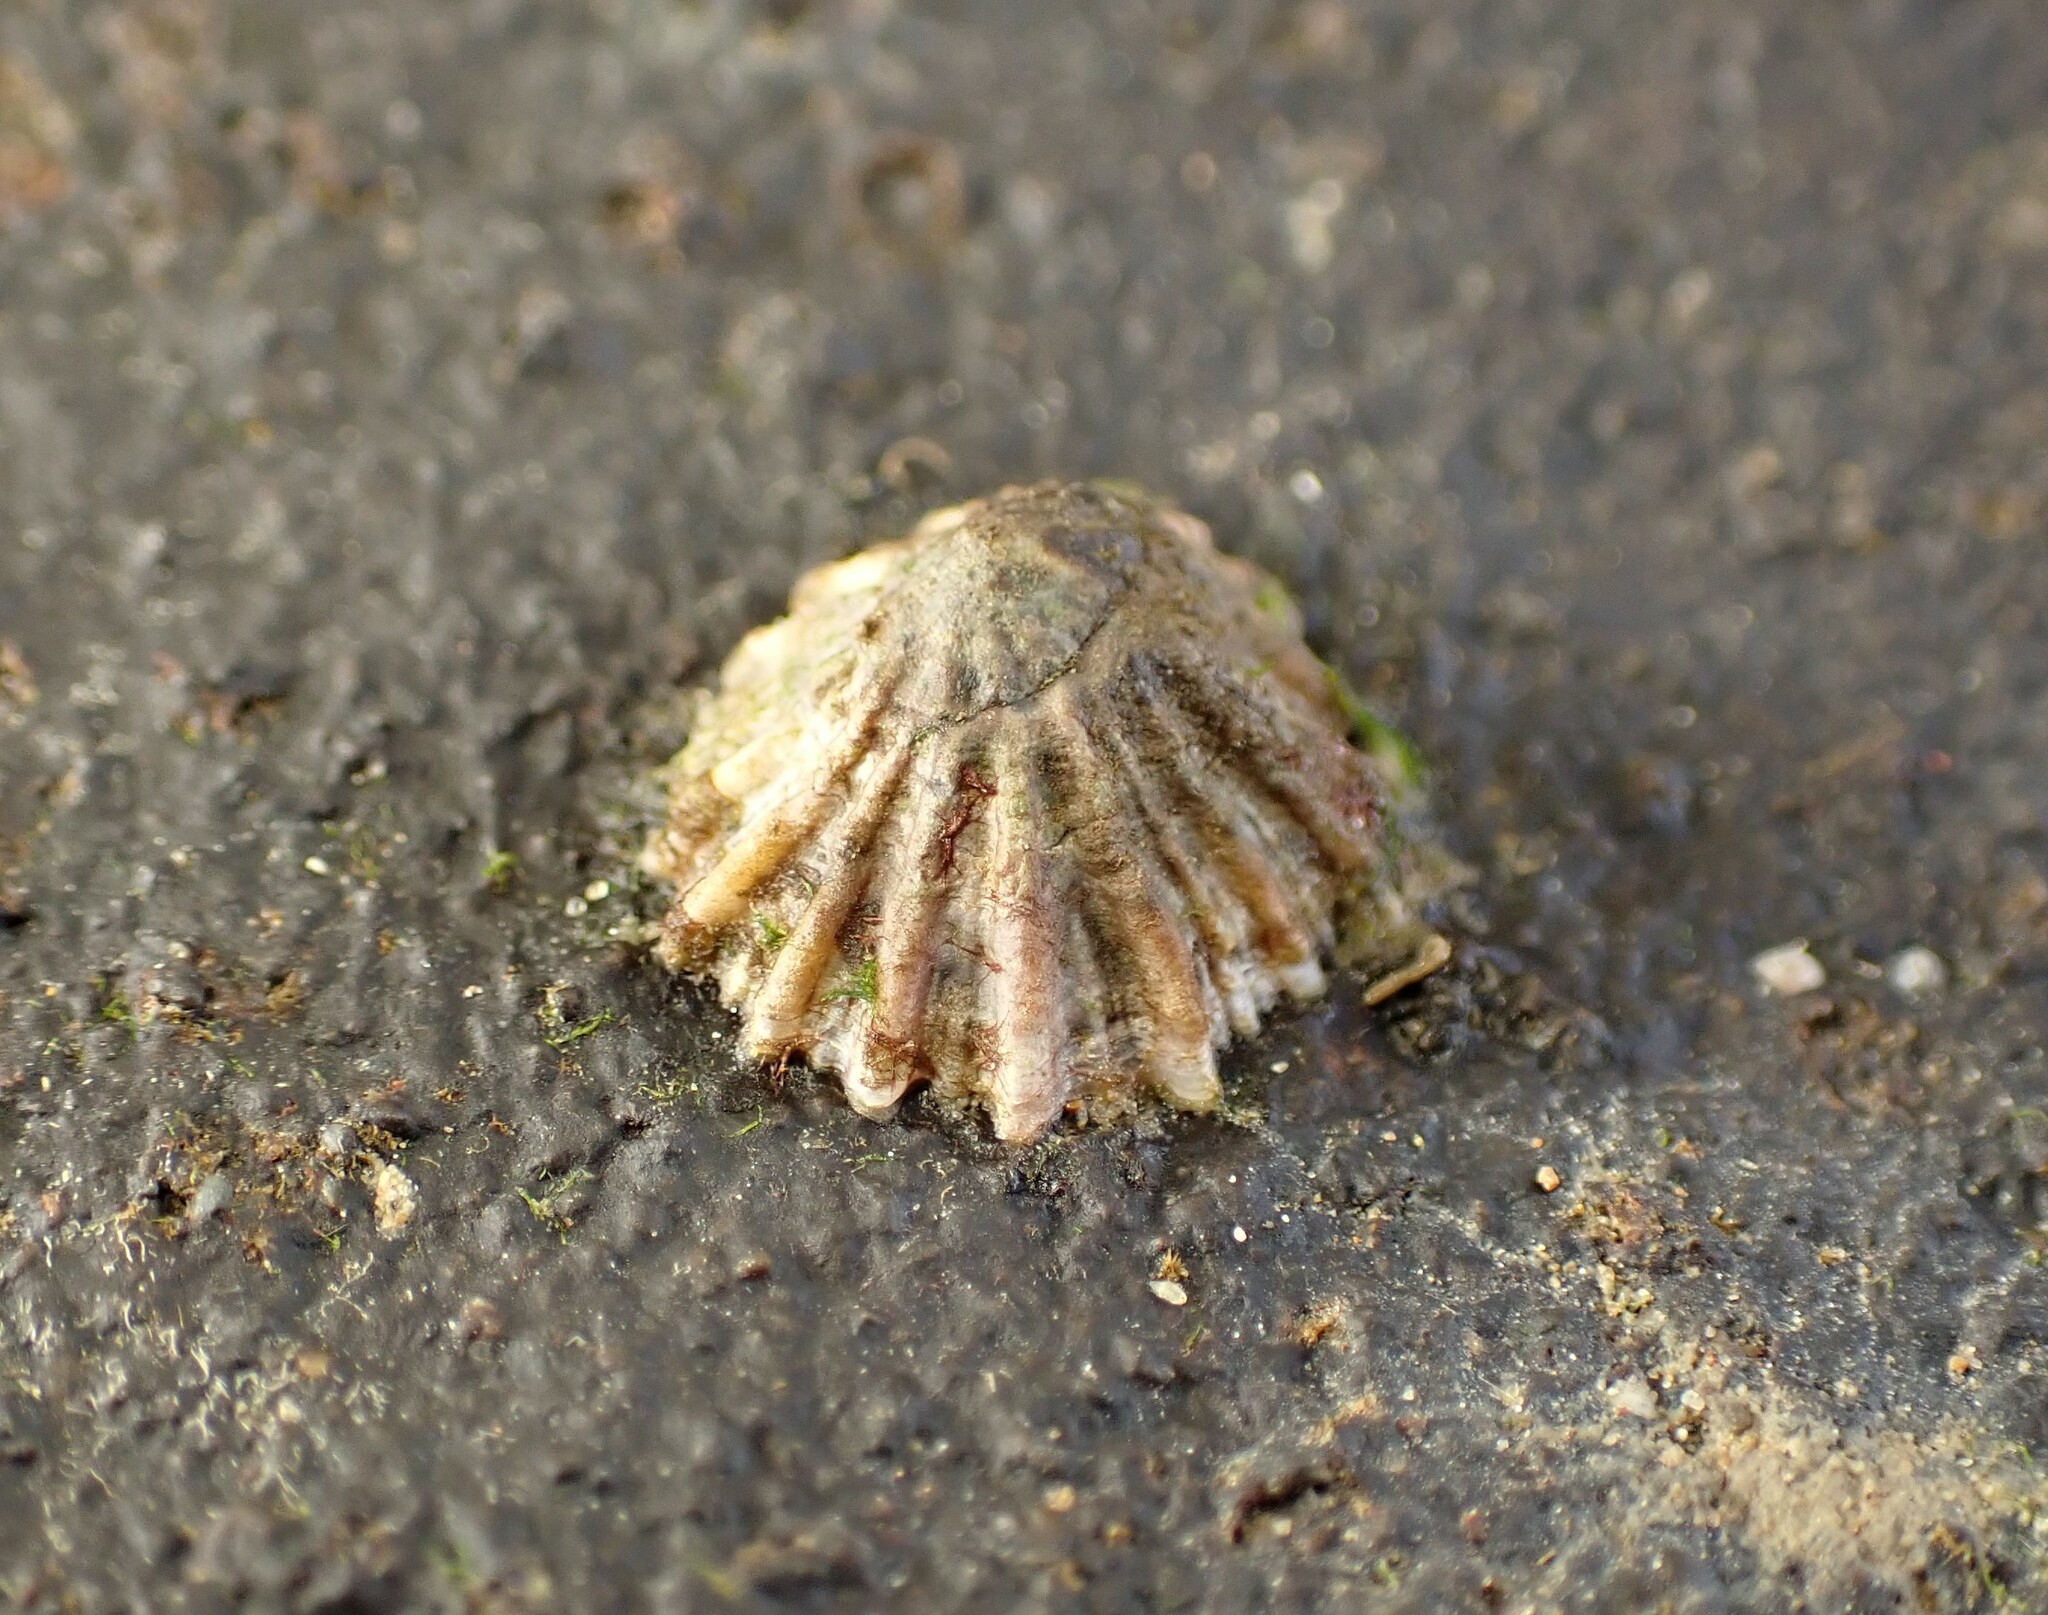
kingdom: Animalia
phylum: Mollusca
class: Gastropoda
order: Siphonariida
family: Siphonariidae
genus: Siphonaria
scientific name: Siphonaria australis
